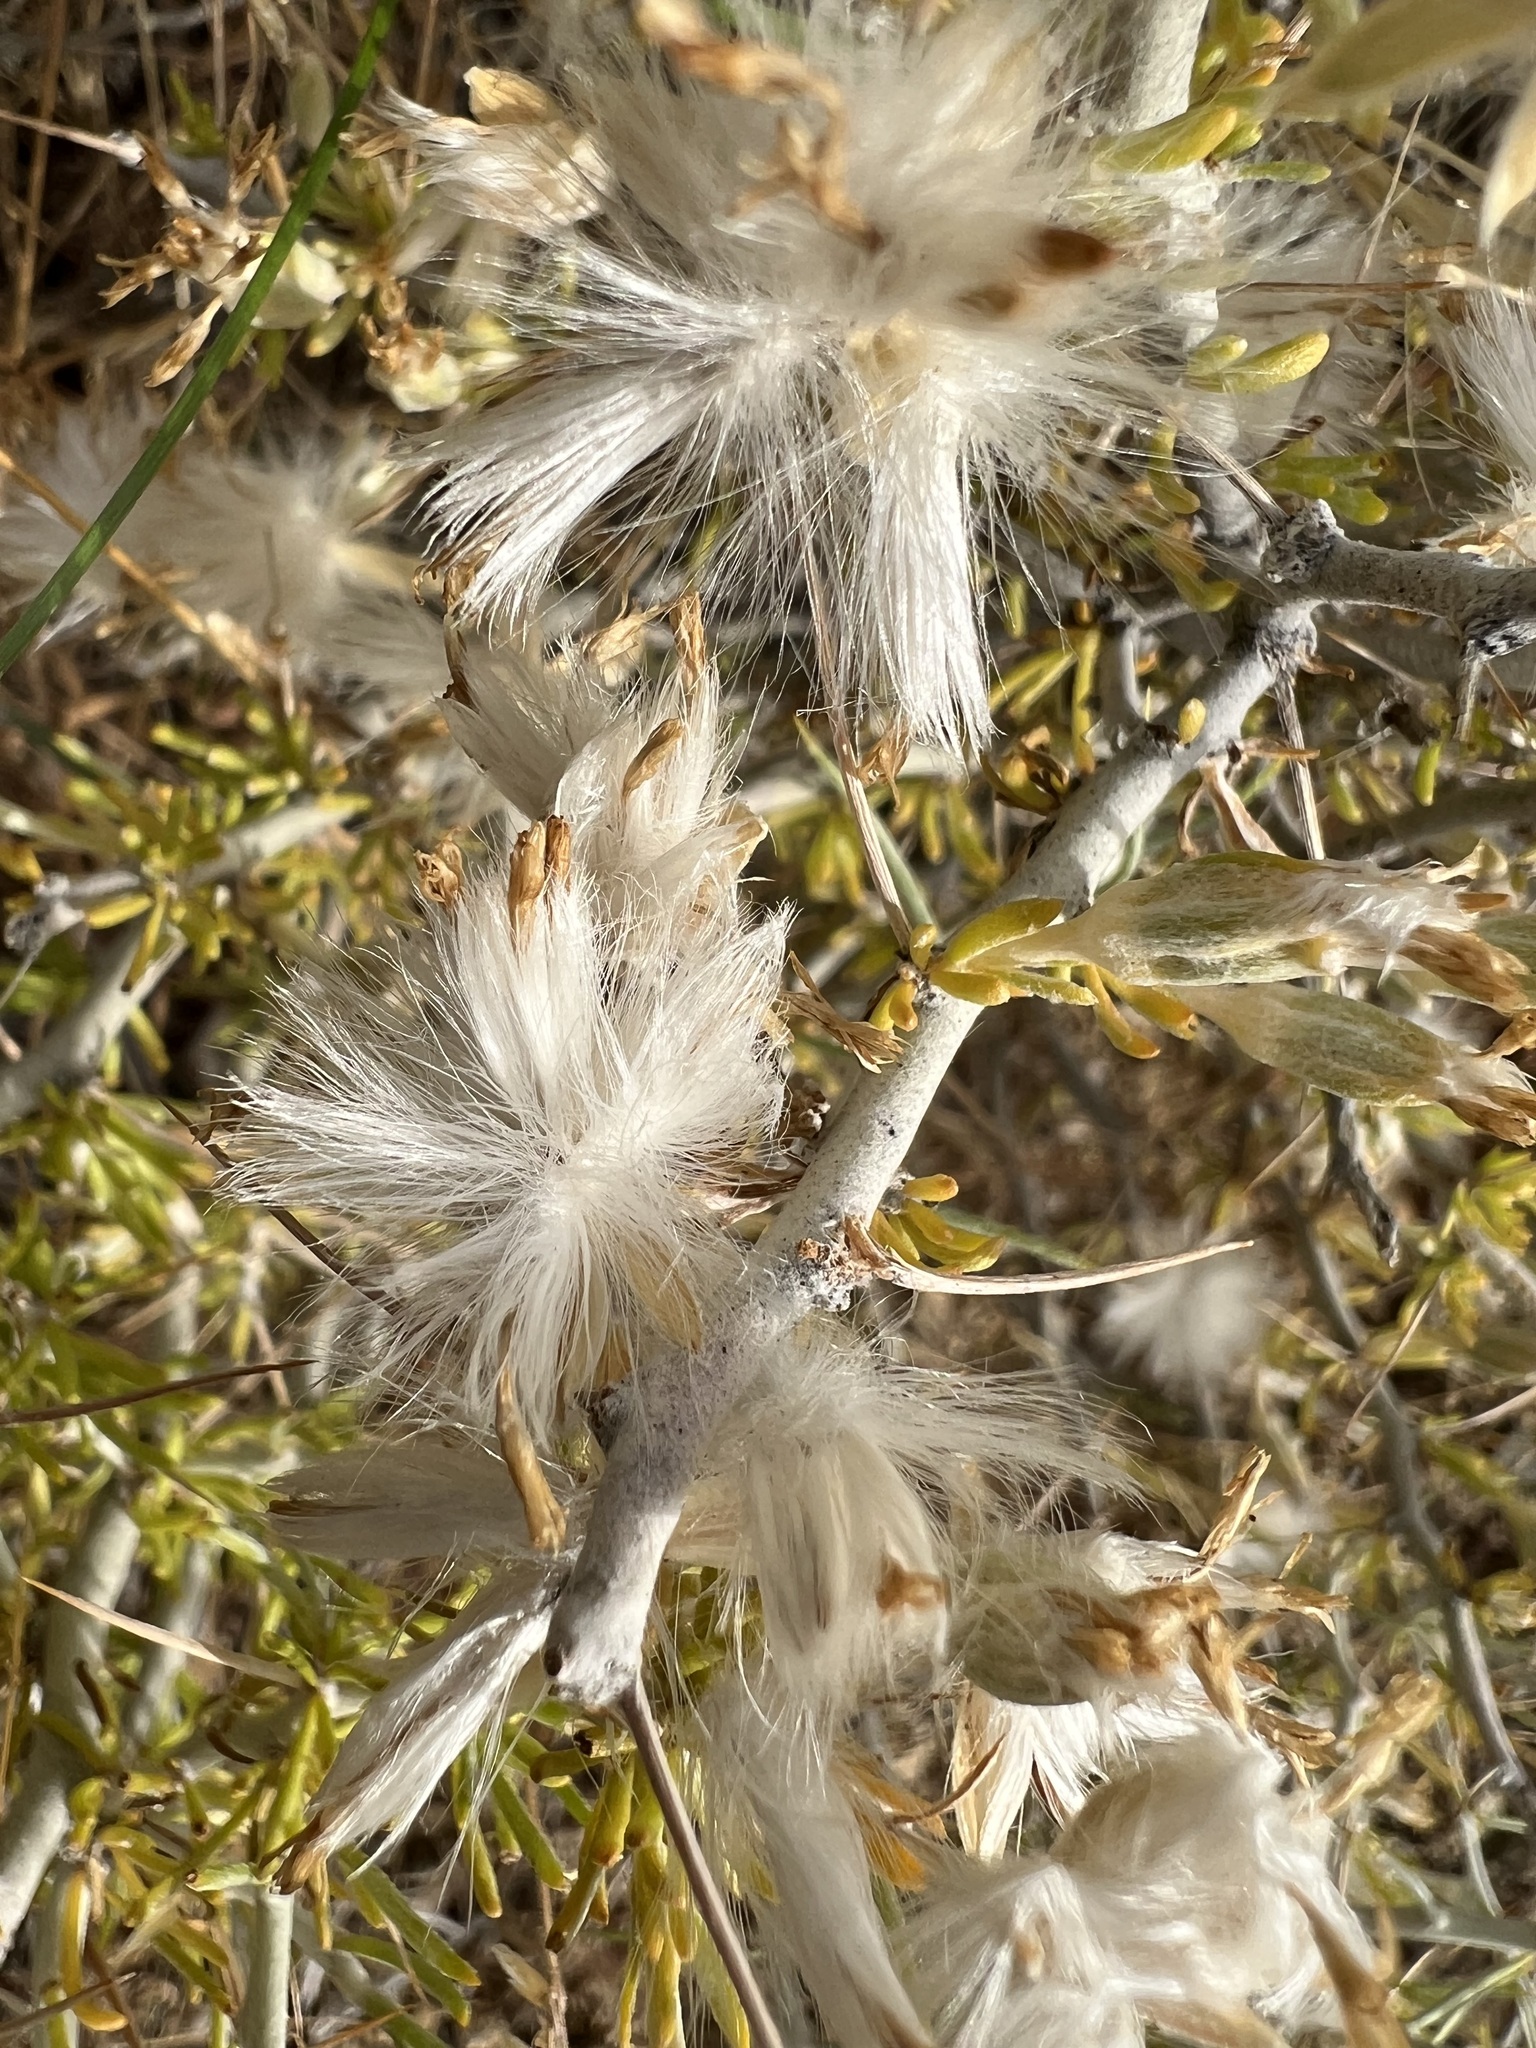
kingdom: Plantae
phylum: Tracheophyta
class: Magnoliopsida
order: Asterales
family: Asteraceae
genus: Tetradymia
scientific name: Tetradymia axillaris
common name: Long-spine horsebrush
